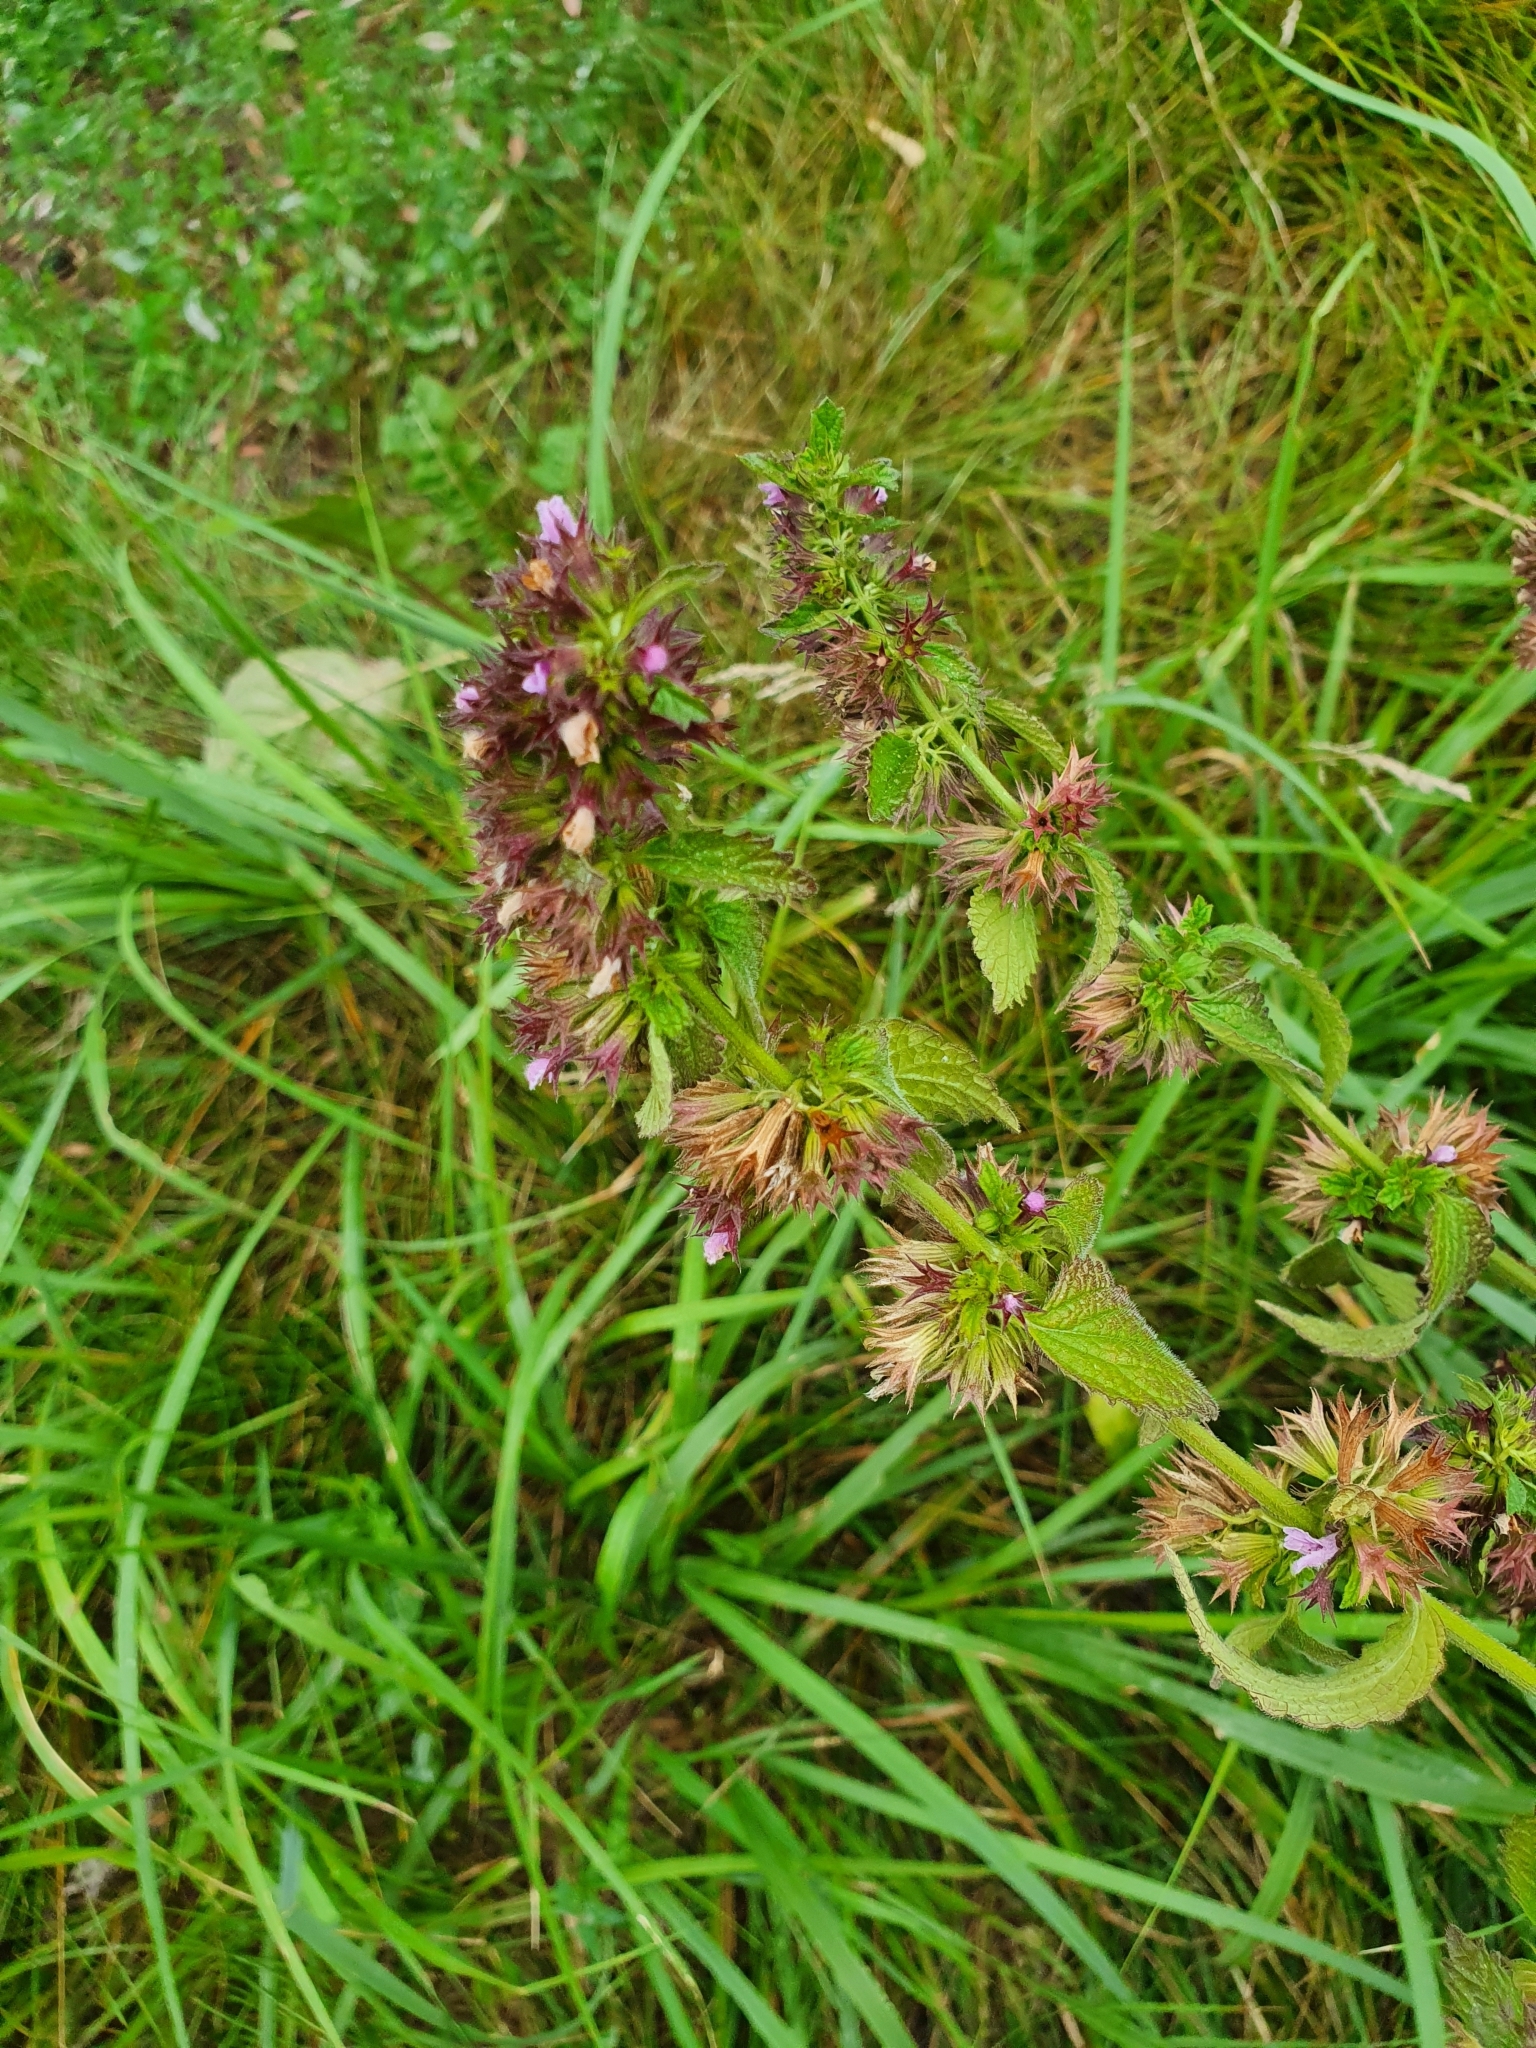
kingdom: Plantae
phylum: Tracheophyta
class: Magnoliopsida
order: Lamiales
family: Lamiaceae
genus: Ballota
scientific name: Ballota nigra
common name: Black horehound
